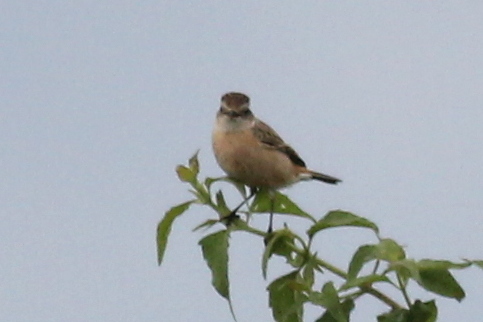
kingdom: Animalia
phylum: Chordata
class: Aves
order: Passeriformes
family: Muscicapidae
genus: Saxicola
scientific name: Saxicola stejnegeri
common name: Stejneger's stonechat
